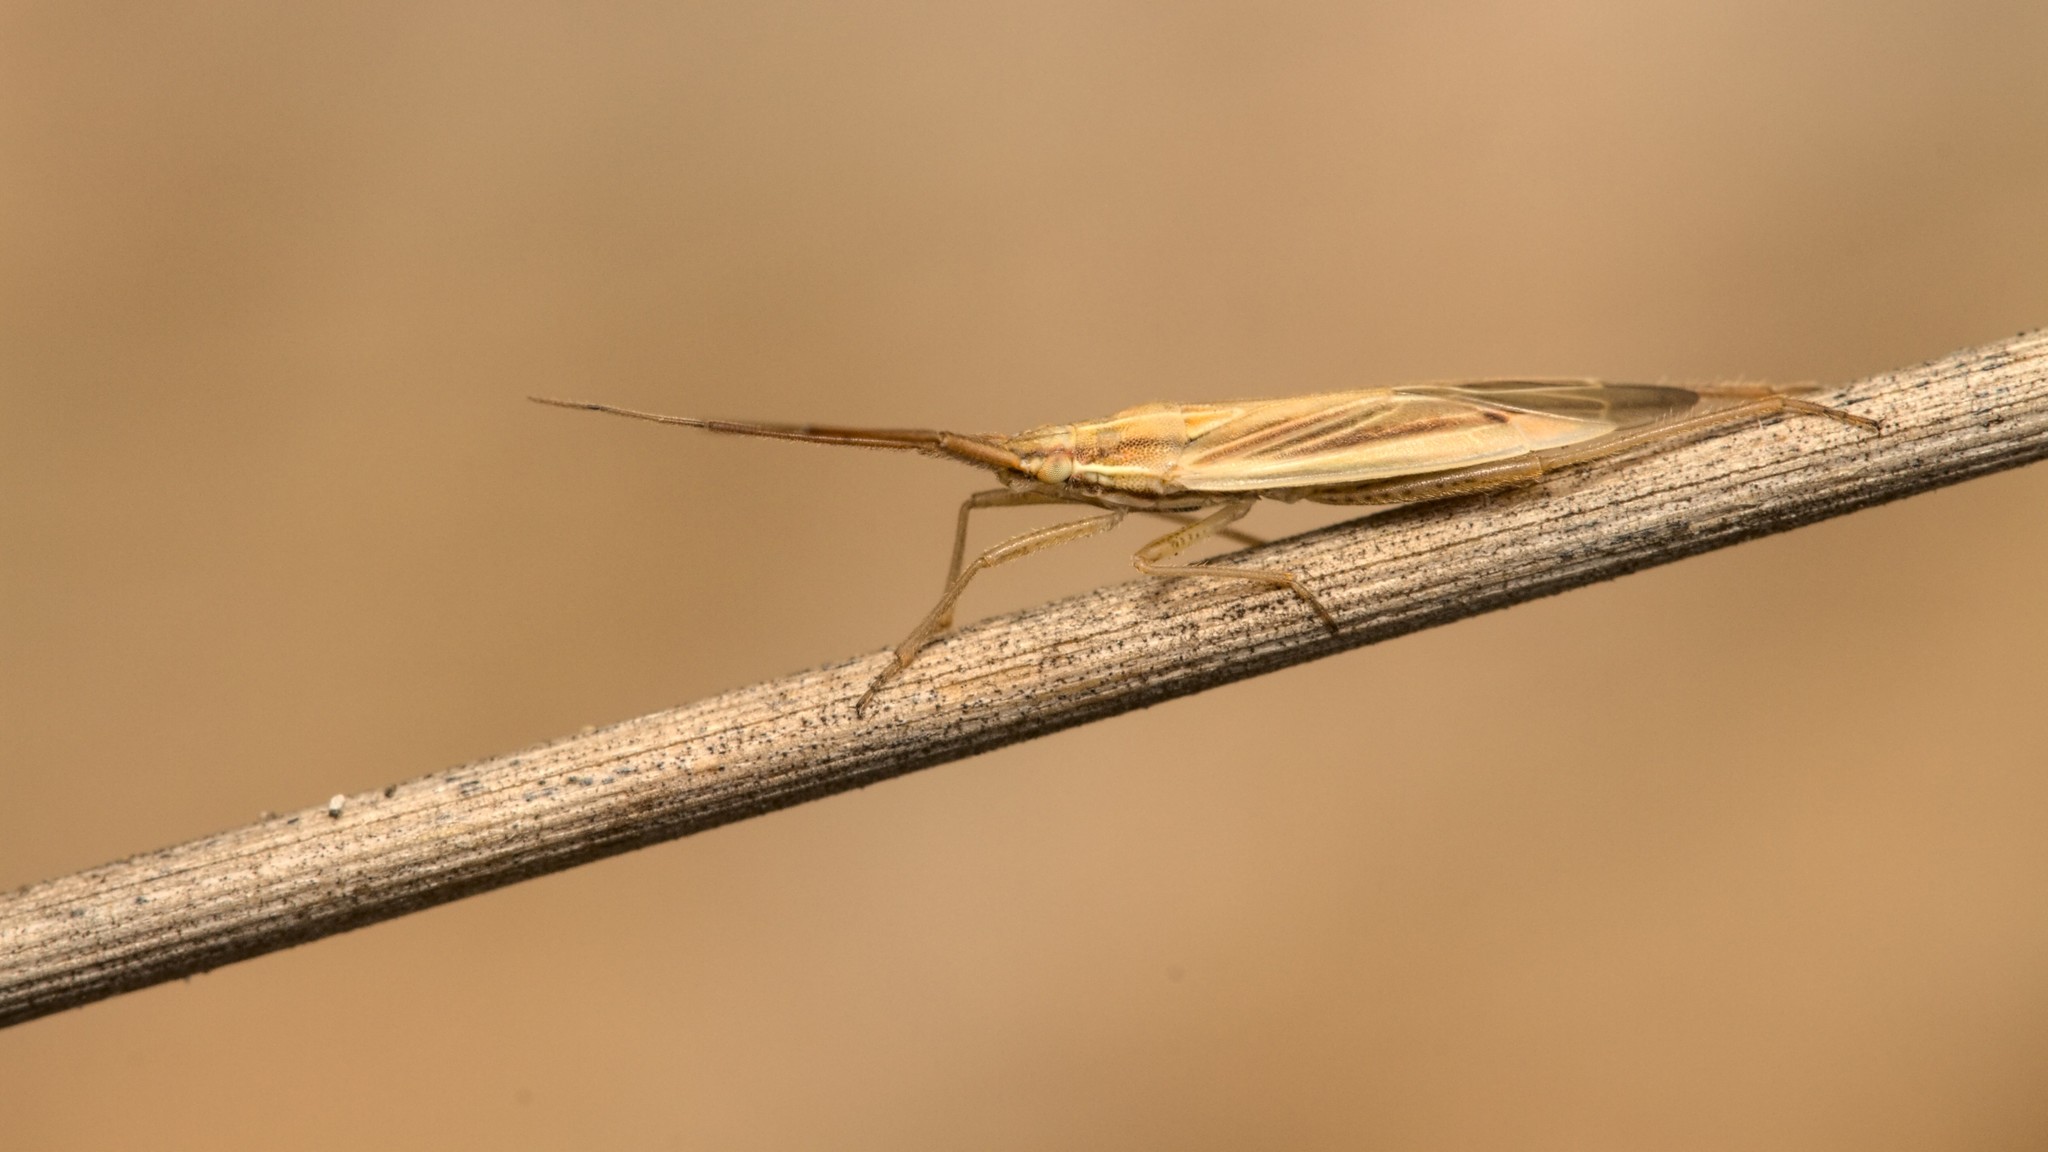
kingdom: Animalia
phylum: Arthropoda
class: Insecta
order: Hemiptera
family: Miridae
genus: Stenodema
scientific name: Stenodema laevigata
